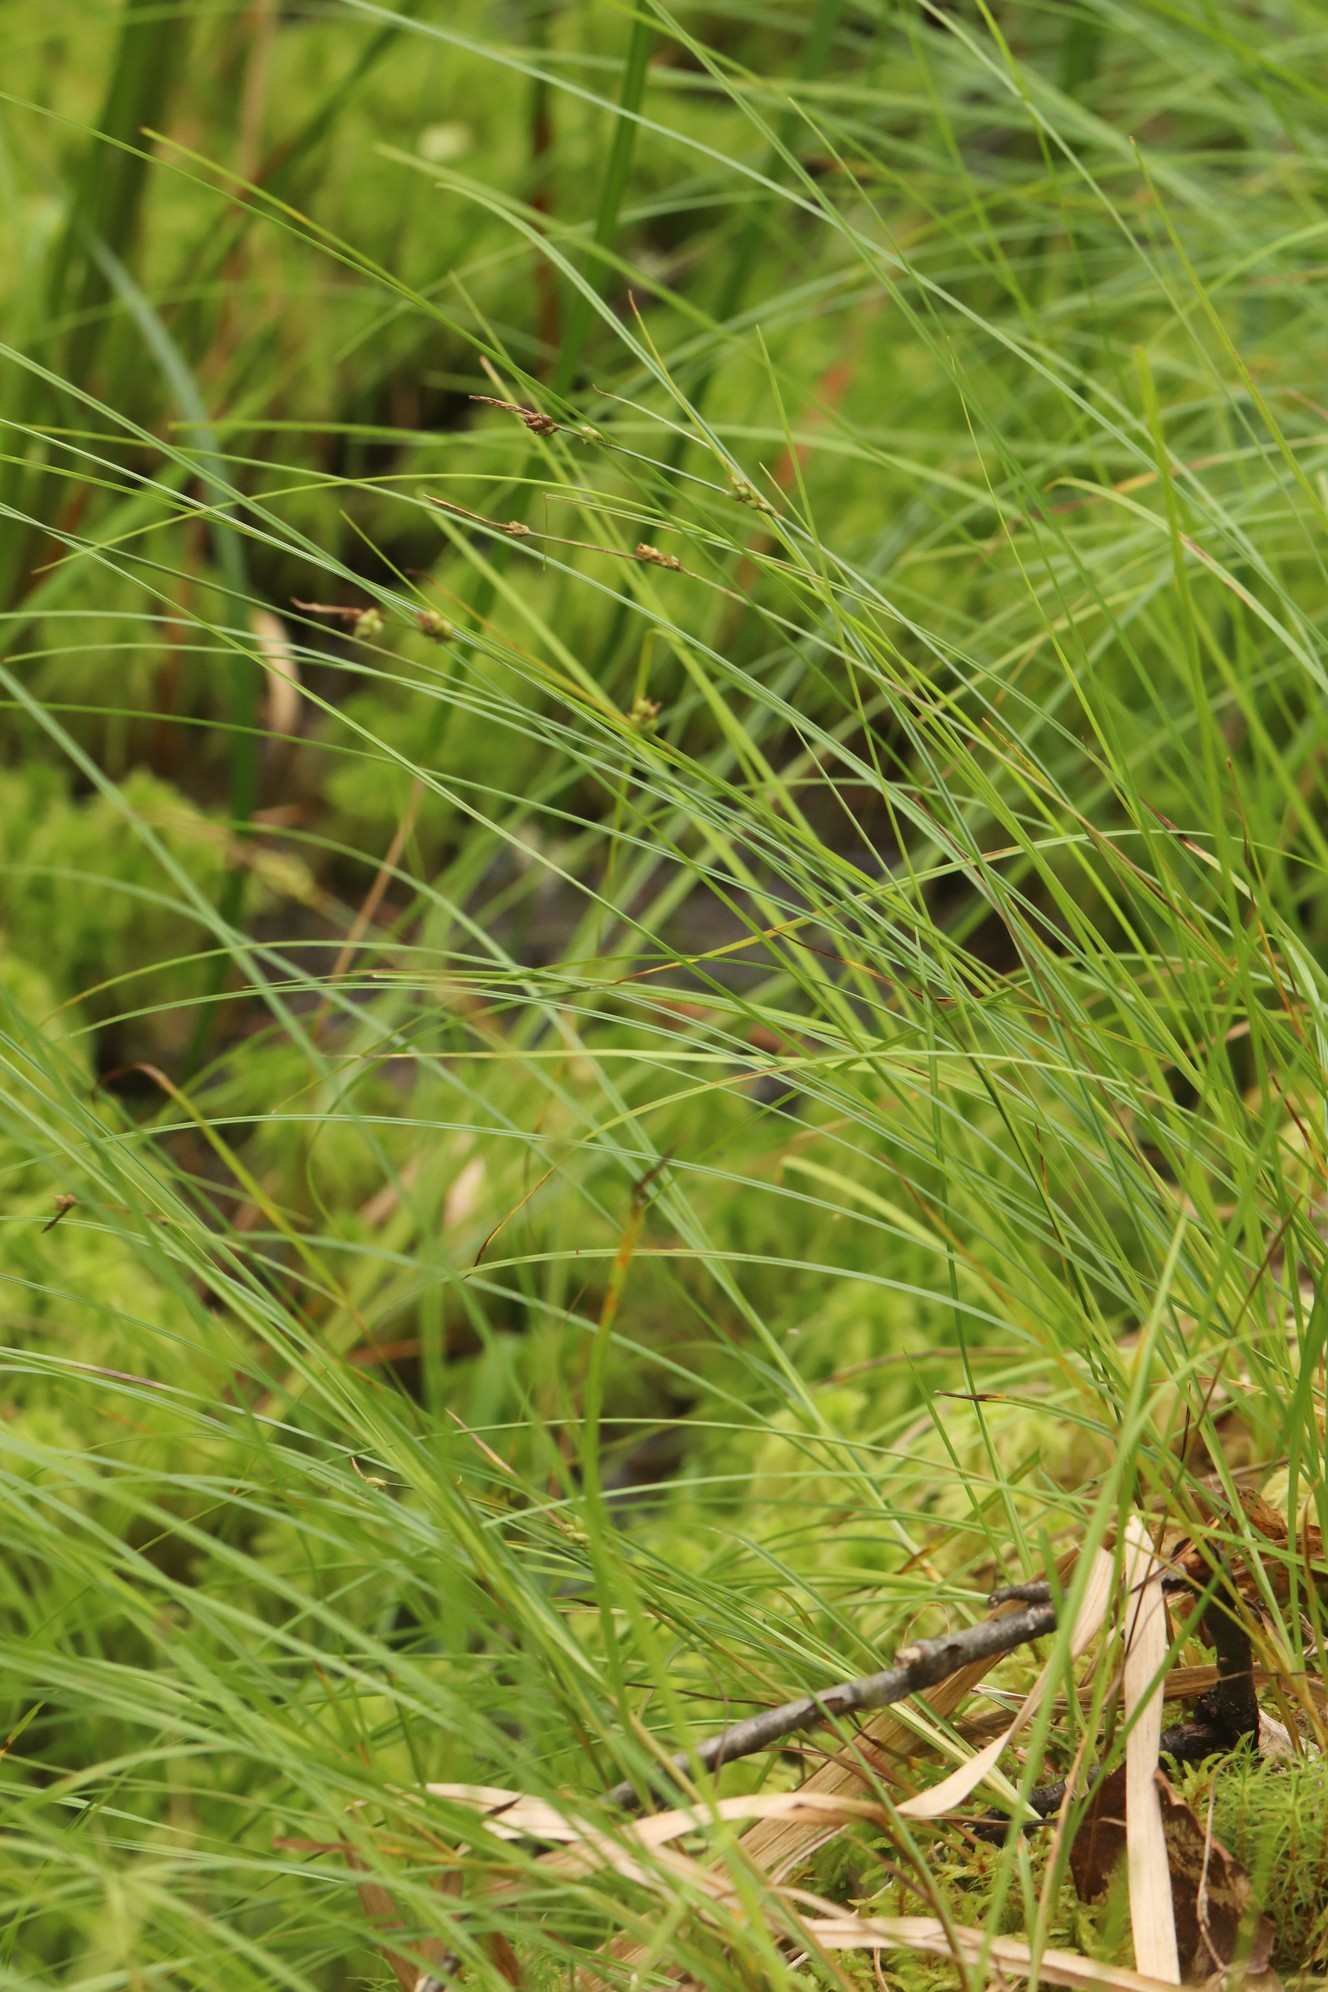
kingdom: Plantae
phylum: Tracheophyta
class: Liliopsida
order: Poales
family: Cyperaceae
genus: Carex
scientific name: Carex globularis
